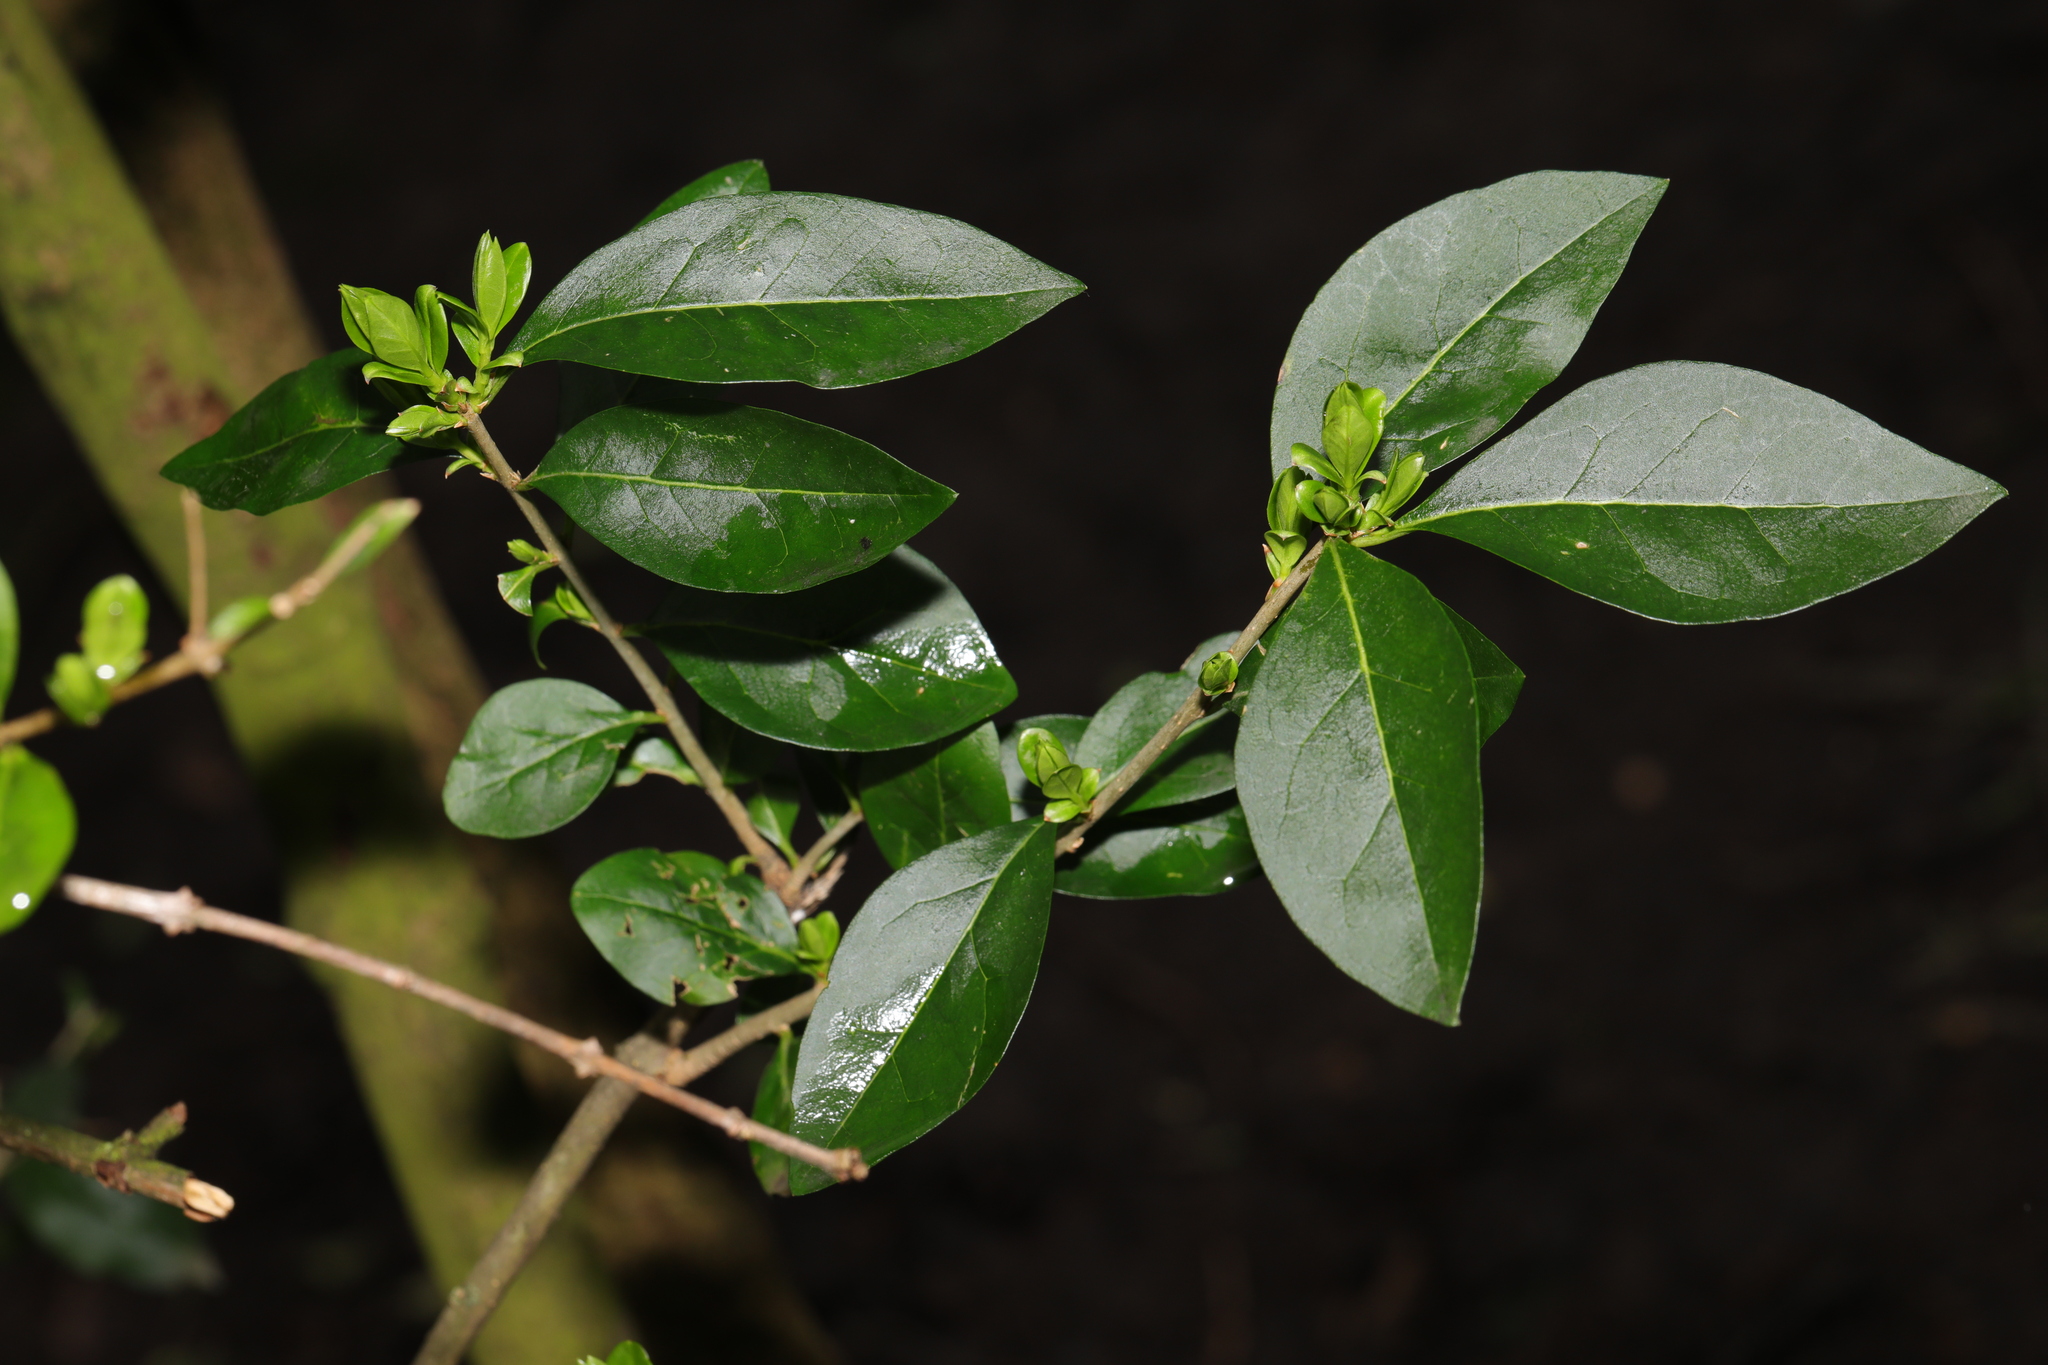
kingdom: Plantae
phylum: Tracheophyta
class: Magnoliopsida
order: Lamiales
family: Oleaceae
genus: Ligustrum
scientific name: Ligustrum ovalifolium
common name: California privet
